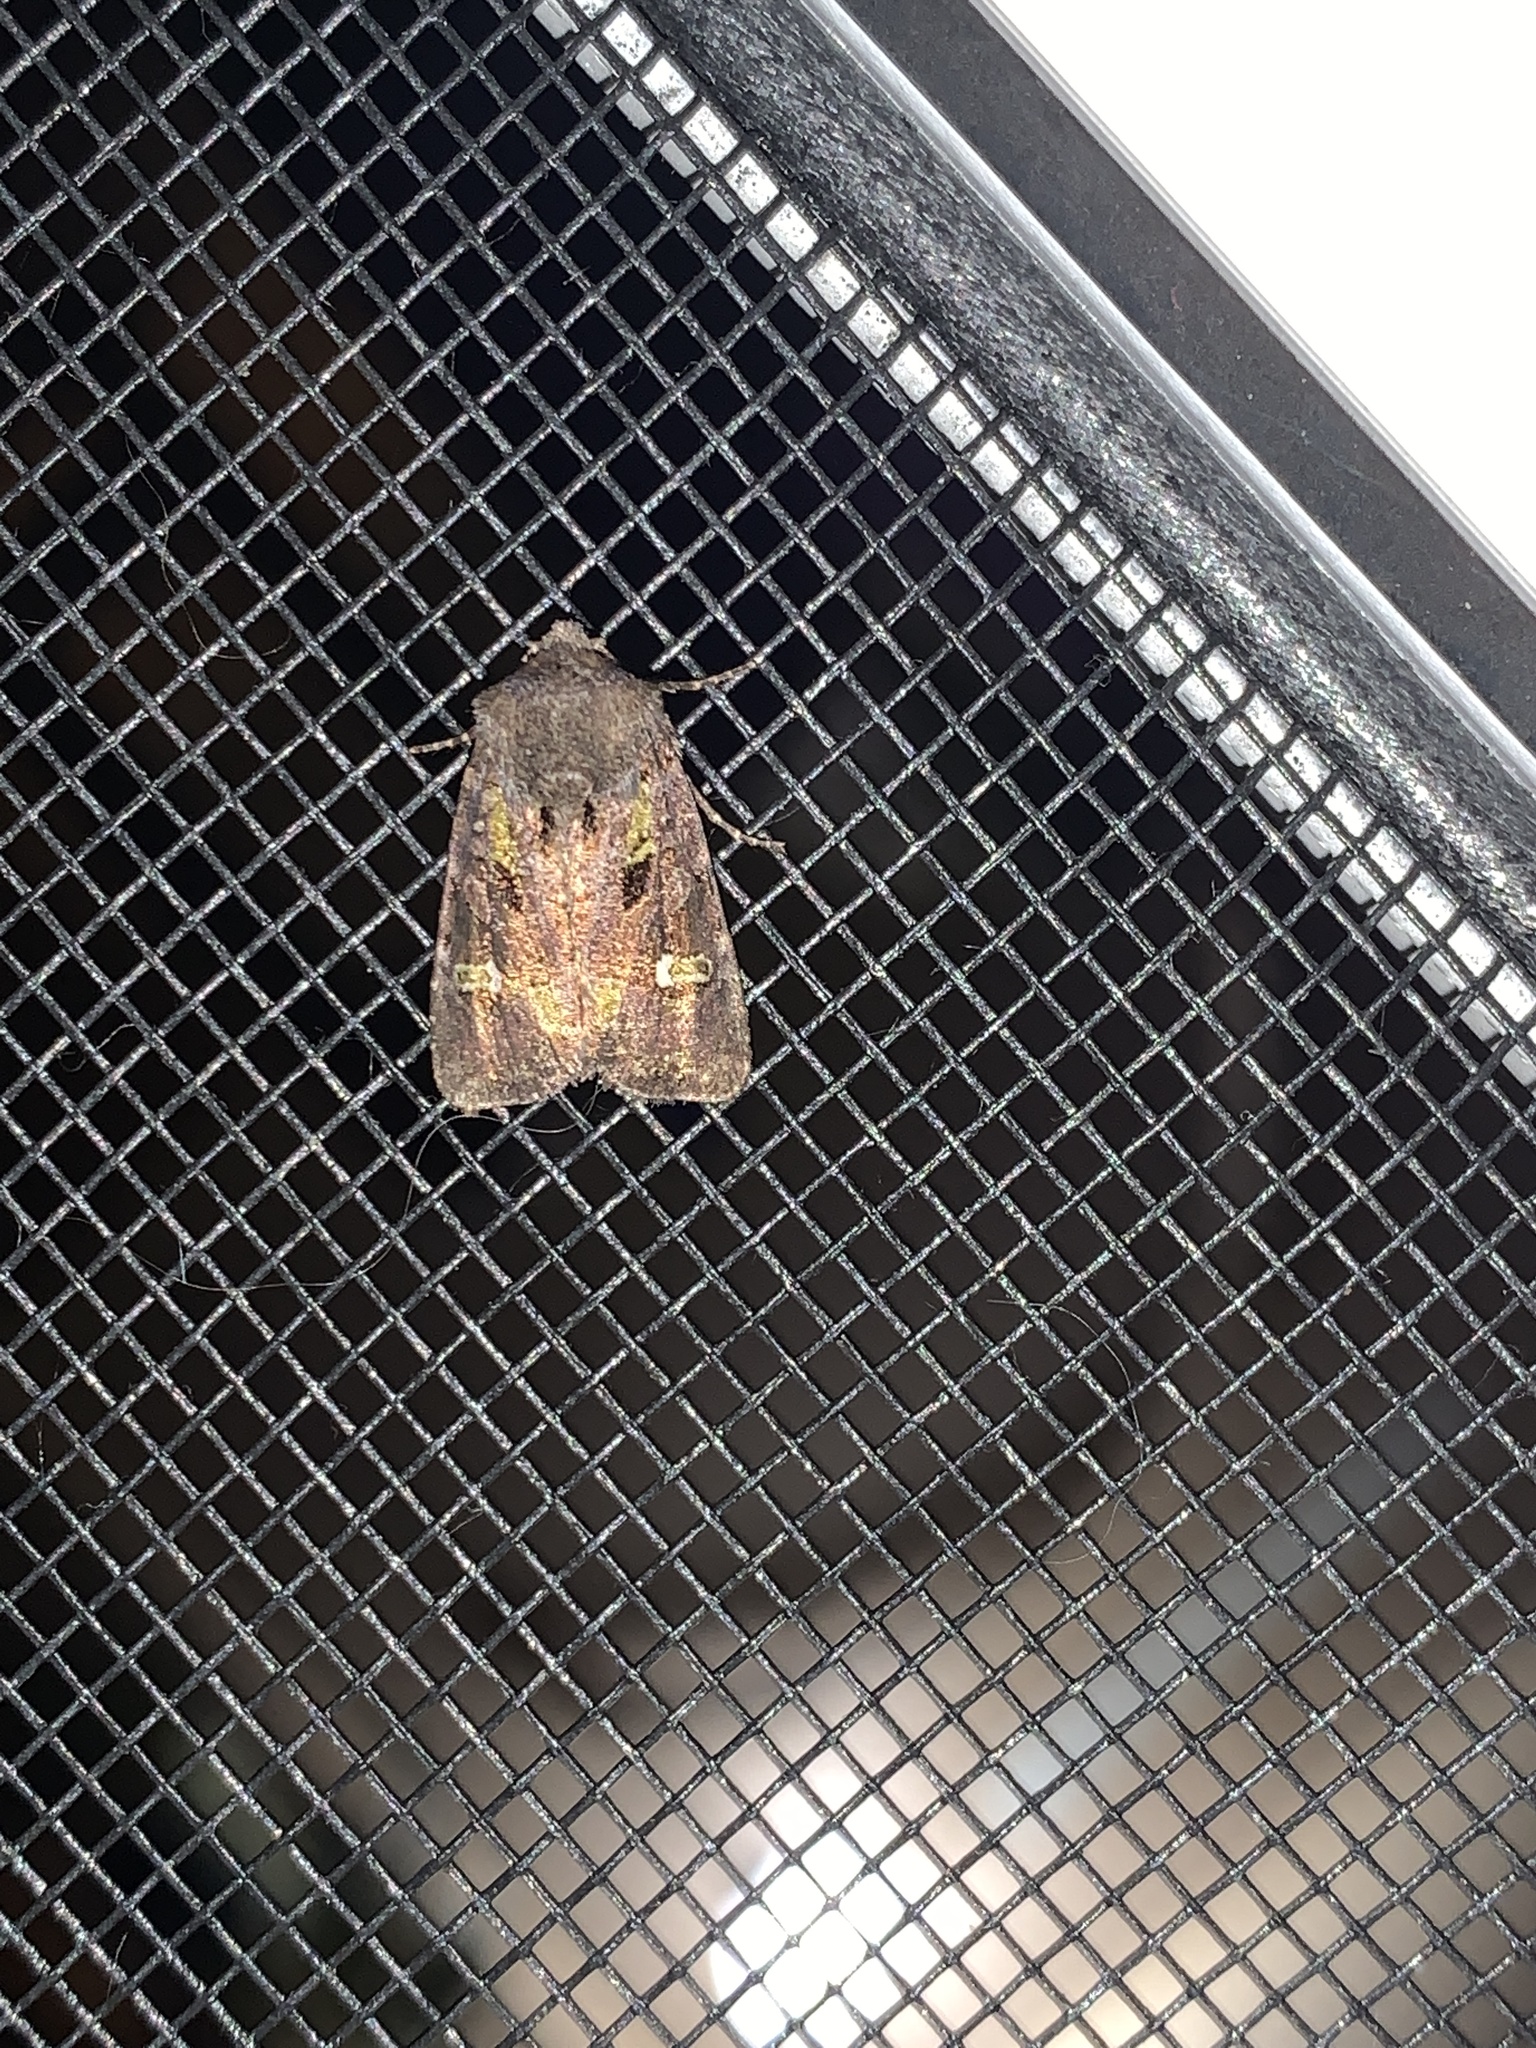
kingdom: Animalia
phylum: Arthropoda
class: Insecta
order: Lepidoptera
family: Noctuidae
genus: Lacinipolia
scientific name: Lacinipolia renigera
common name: Kidney-spotted minor
